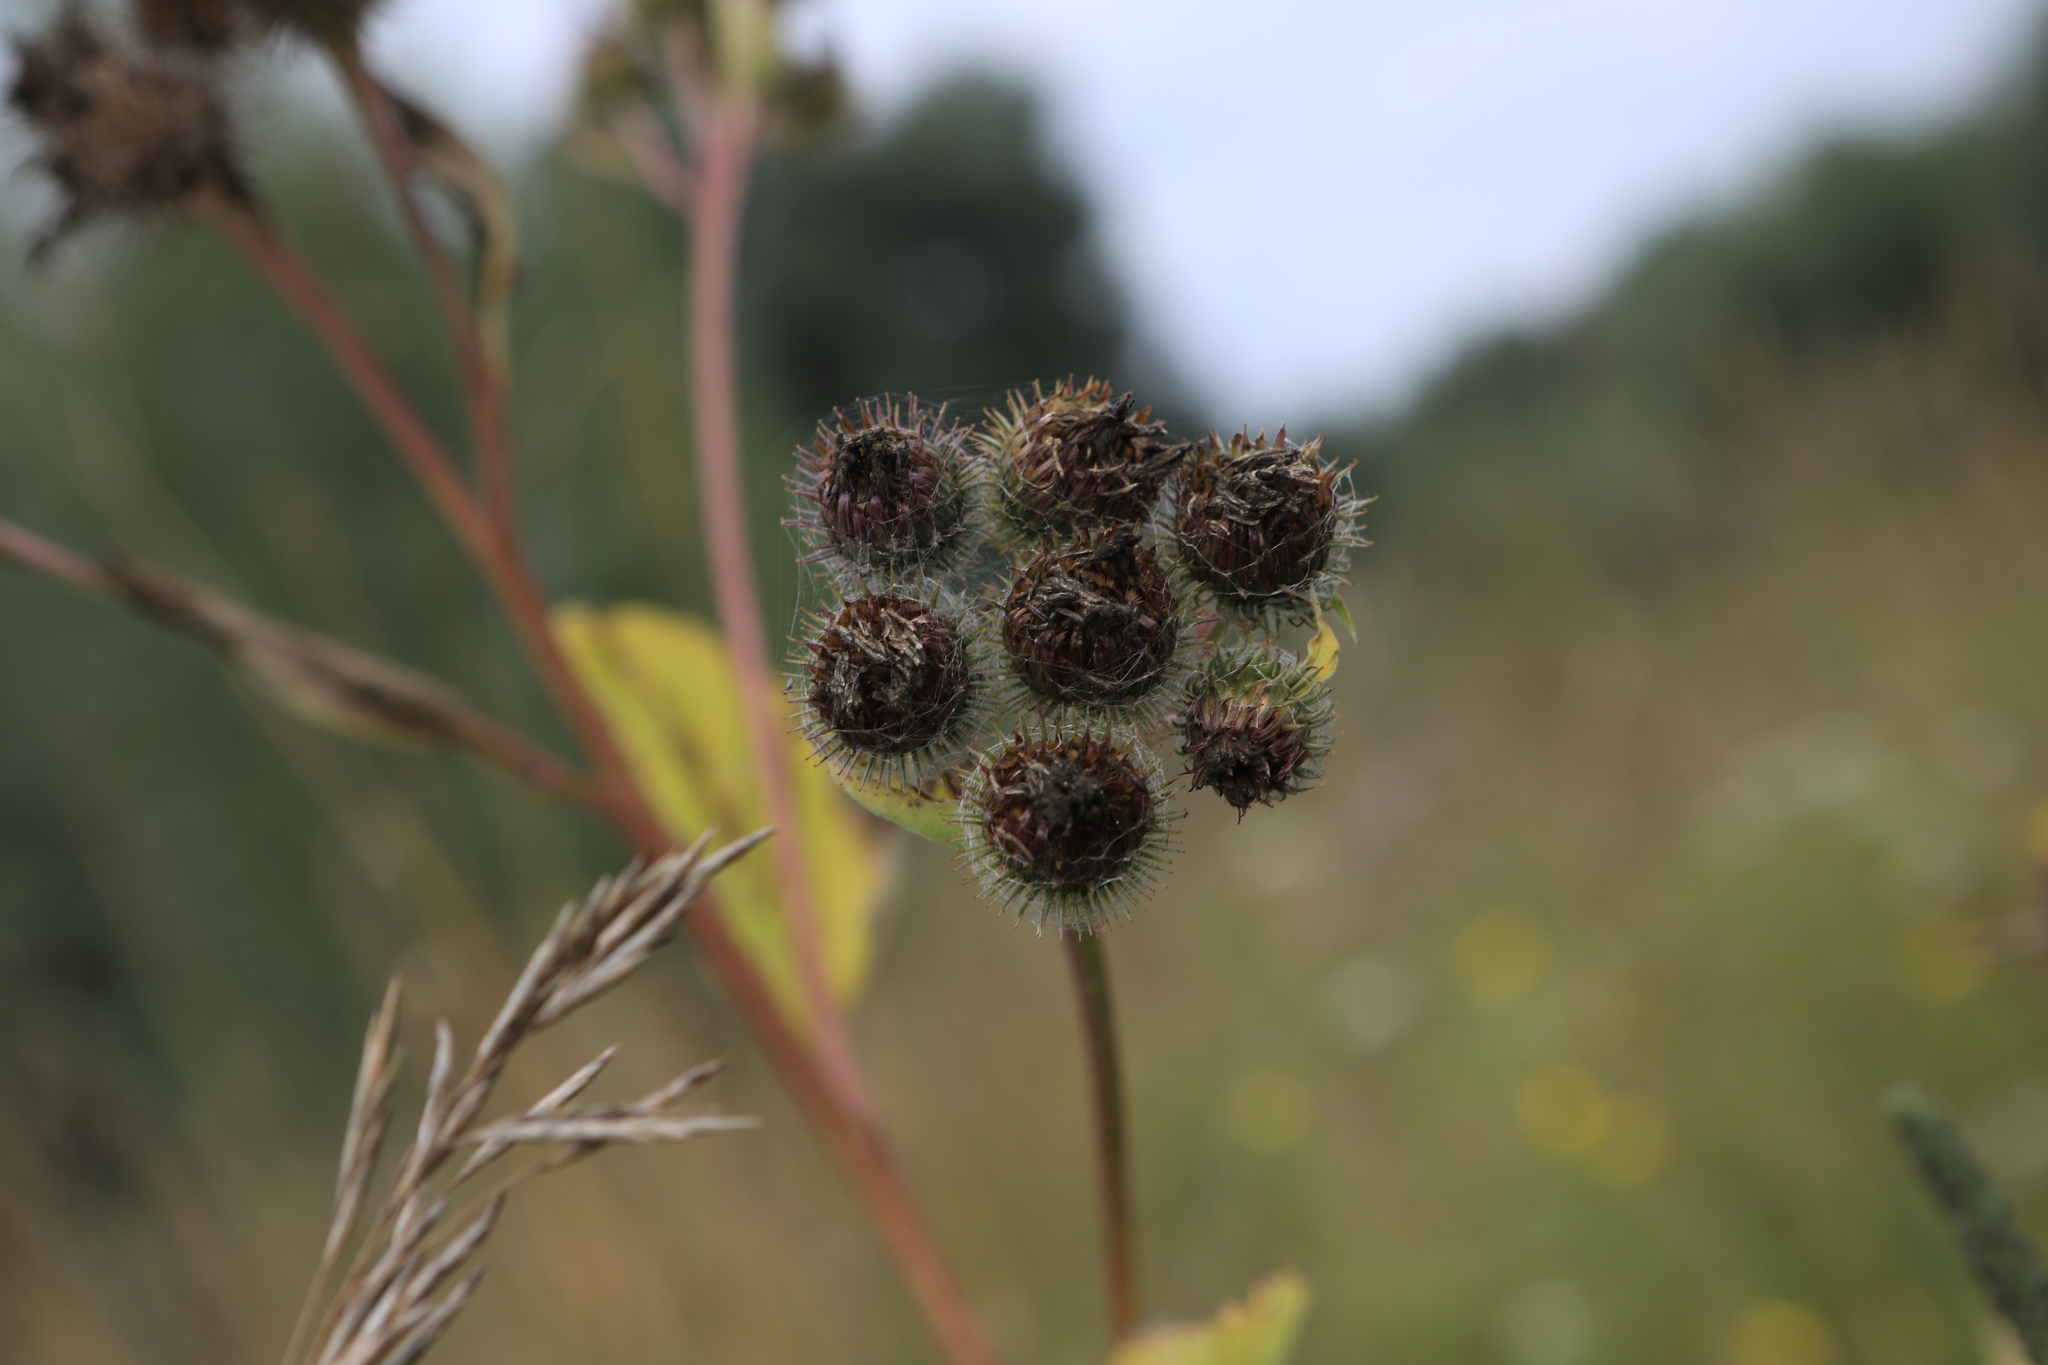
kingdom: Plantae
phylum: Tracheophyta
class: Magnoliopsida
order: Asterales
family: Asteraceae
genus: Arctium
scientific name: Arctium tomentosum
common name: Woolly burdock
